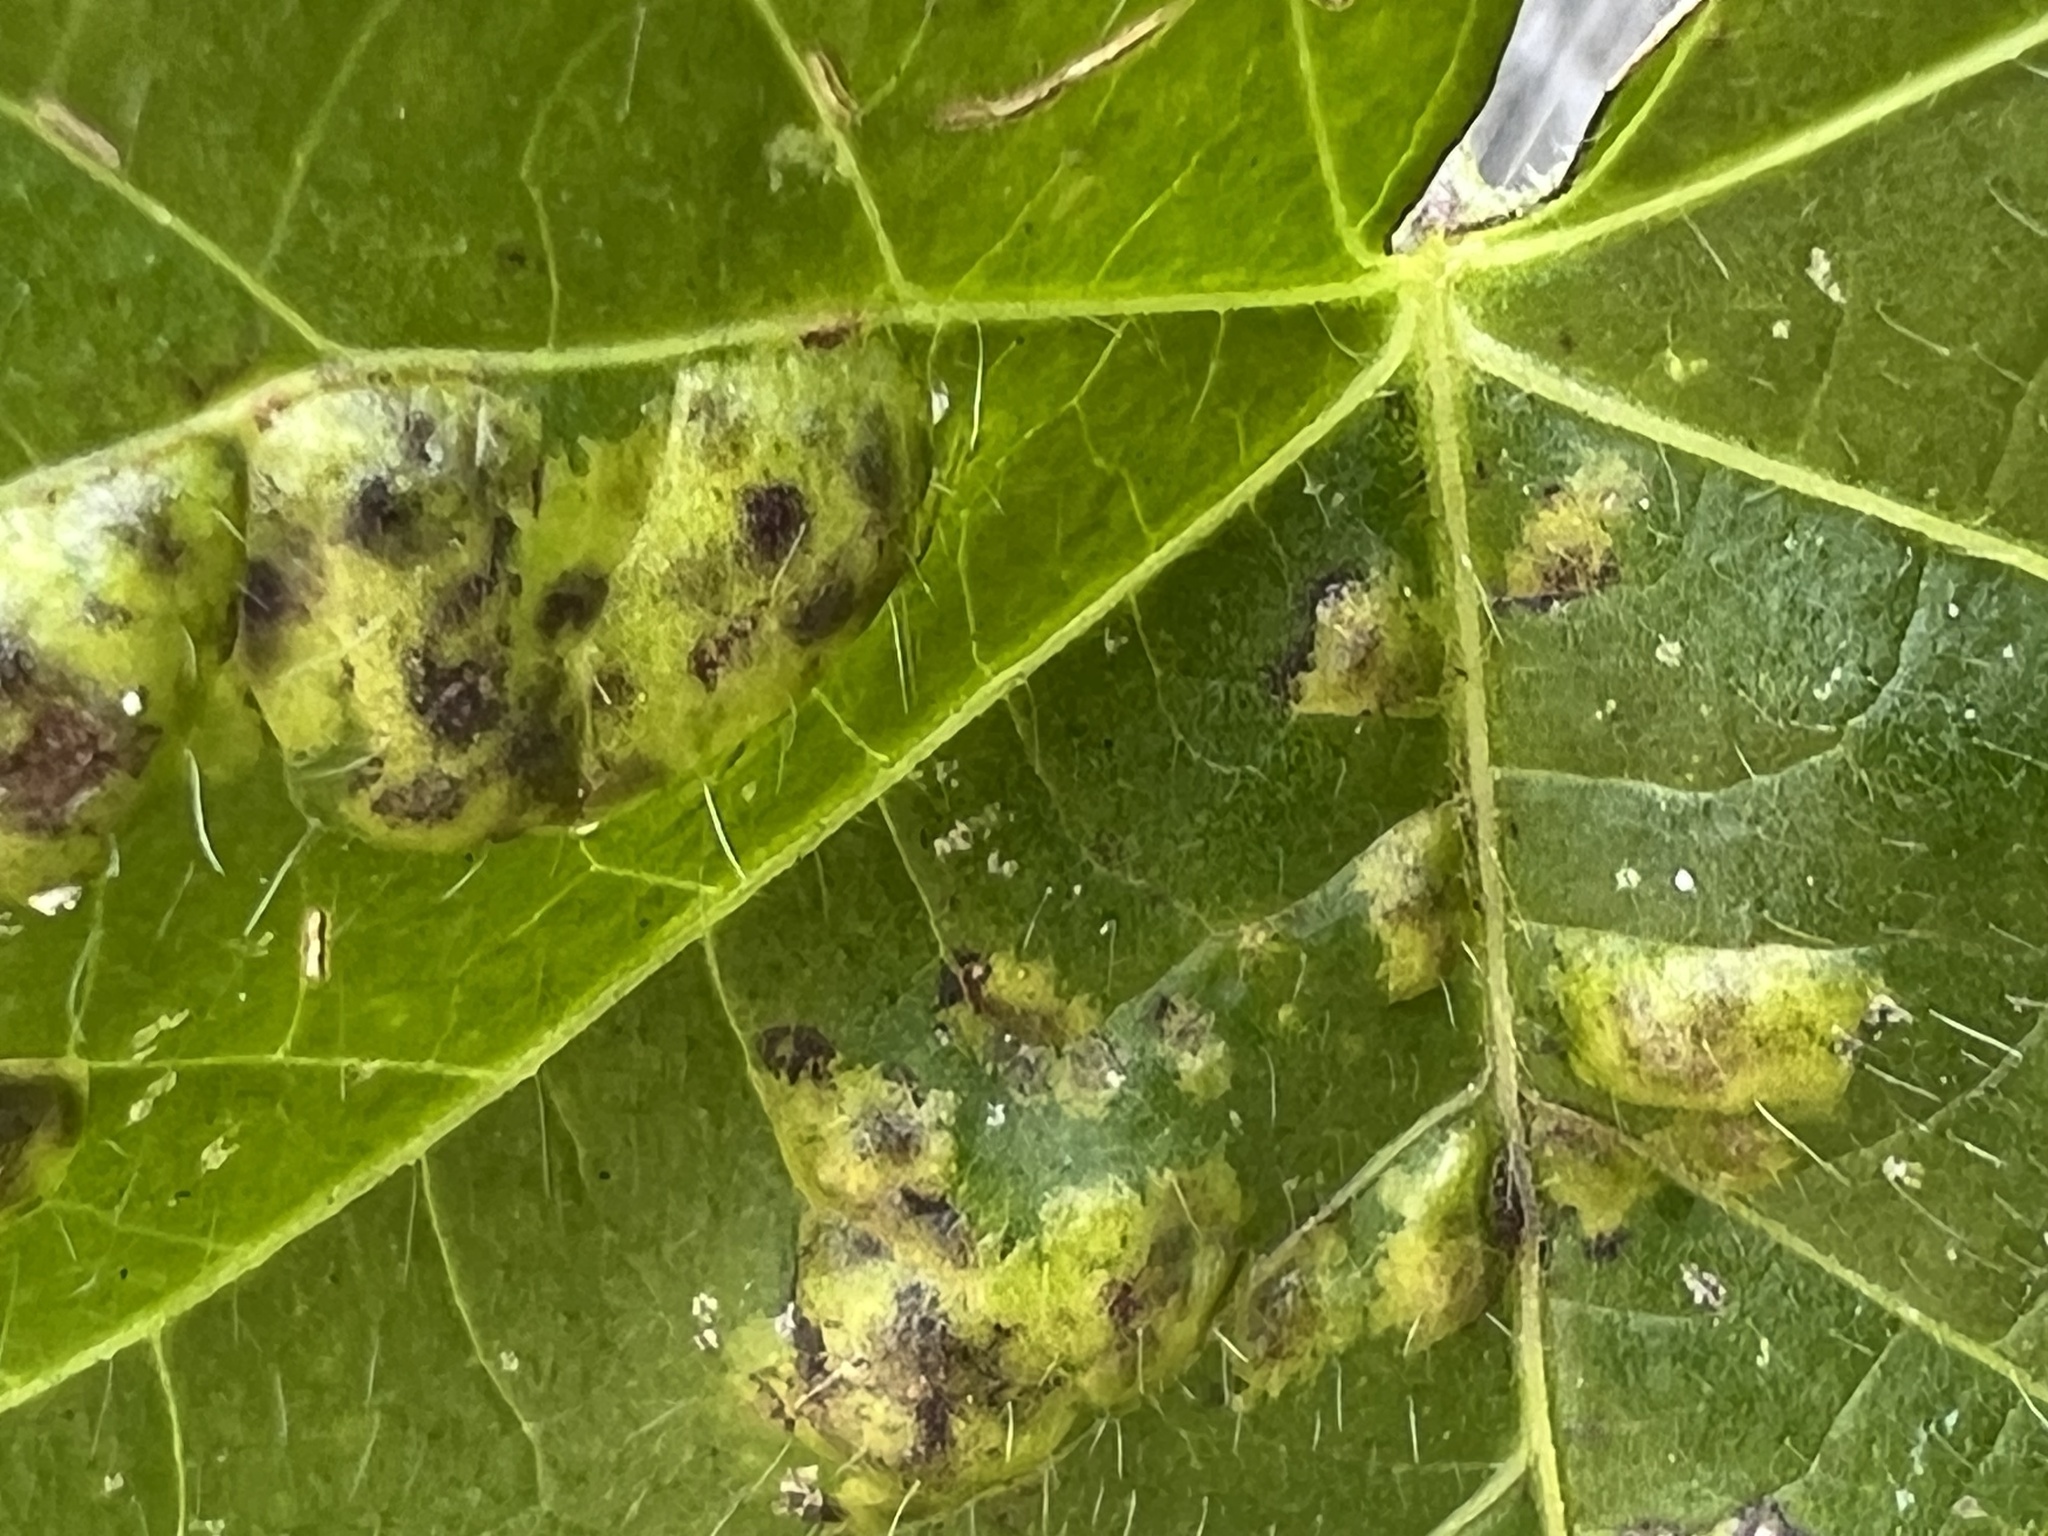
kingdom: Chromista
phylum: Oomycota
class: Peronosporea
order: Albuginales
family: Albuginaceae
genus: Albugo
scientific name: Albugo ipomoeae-panduratae
